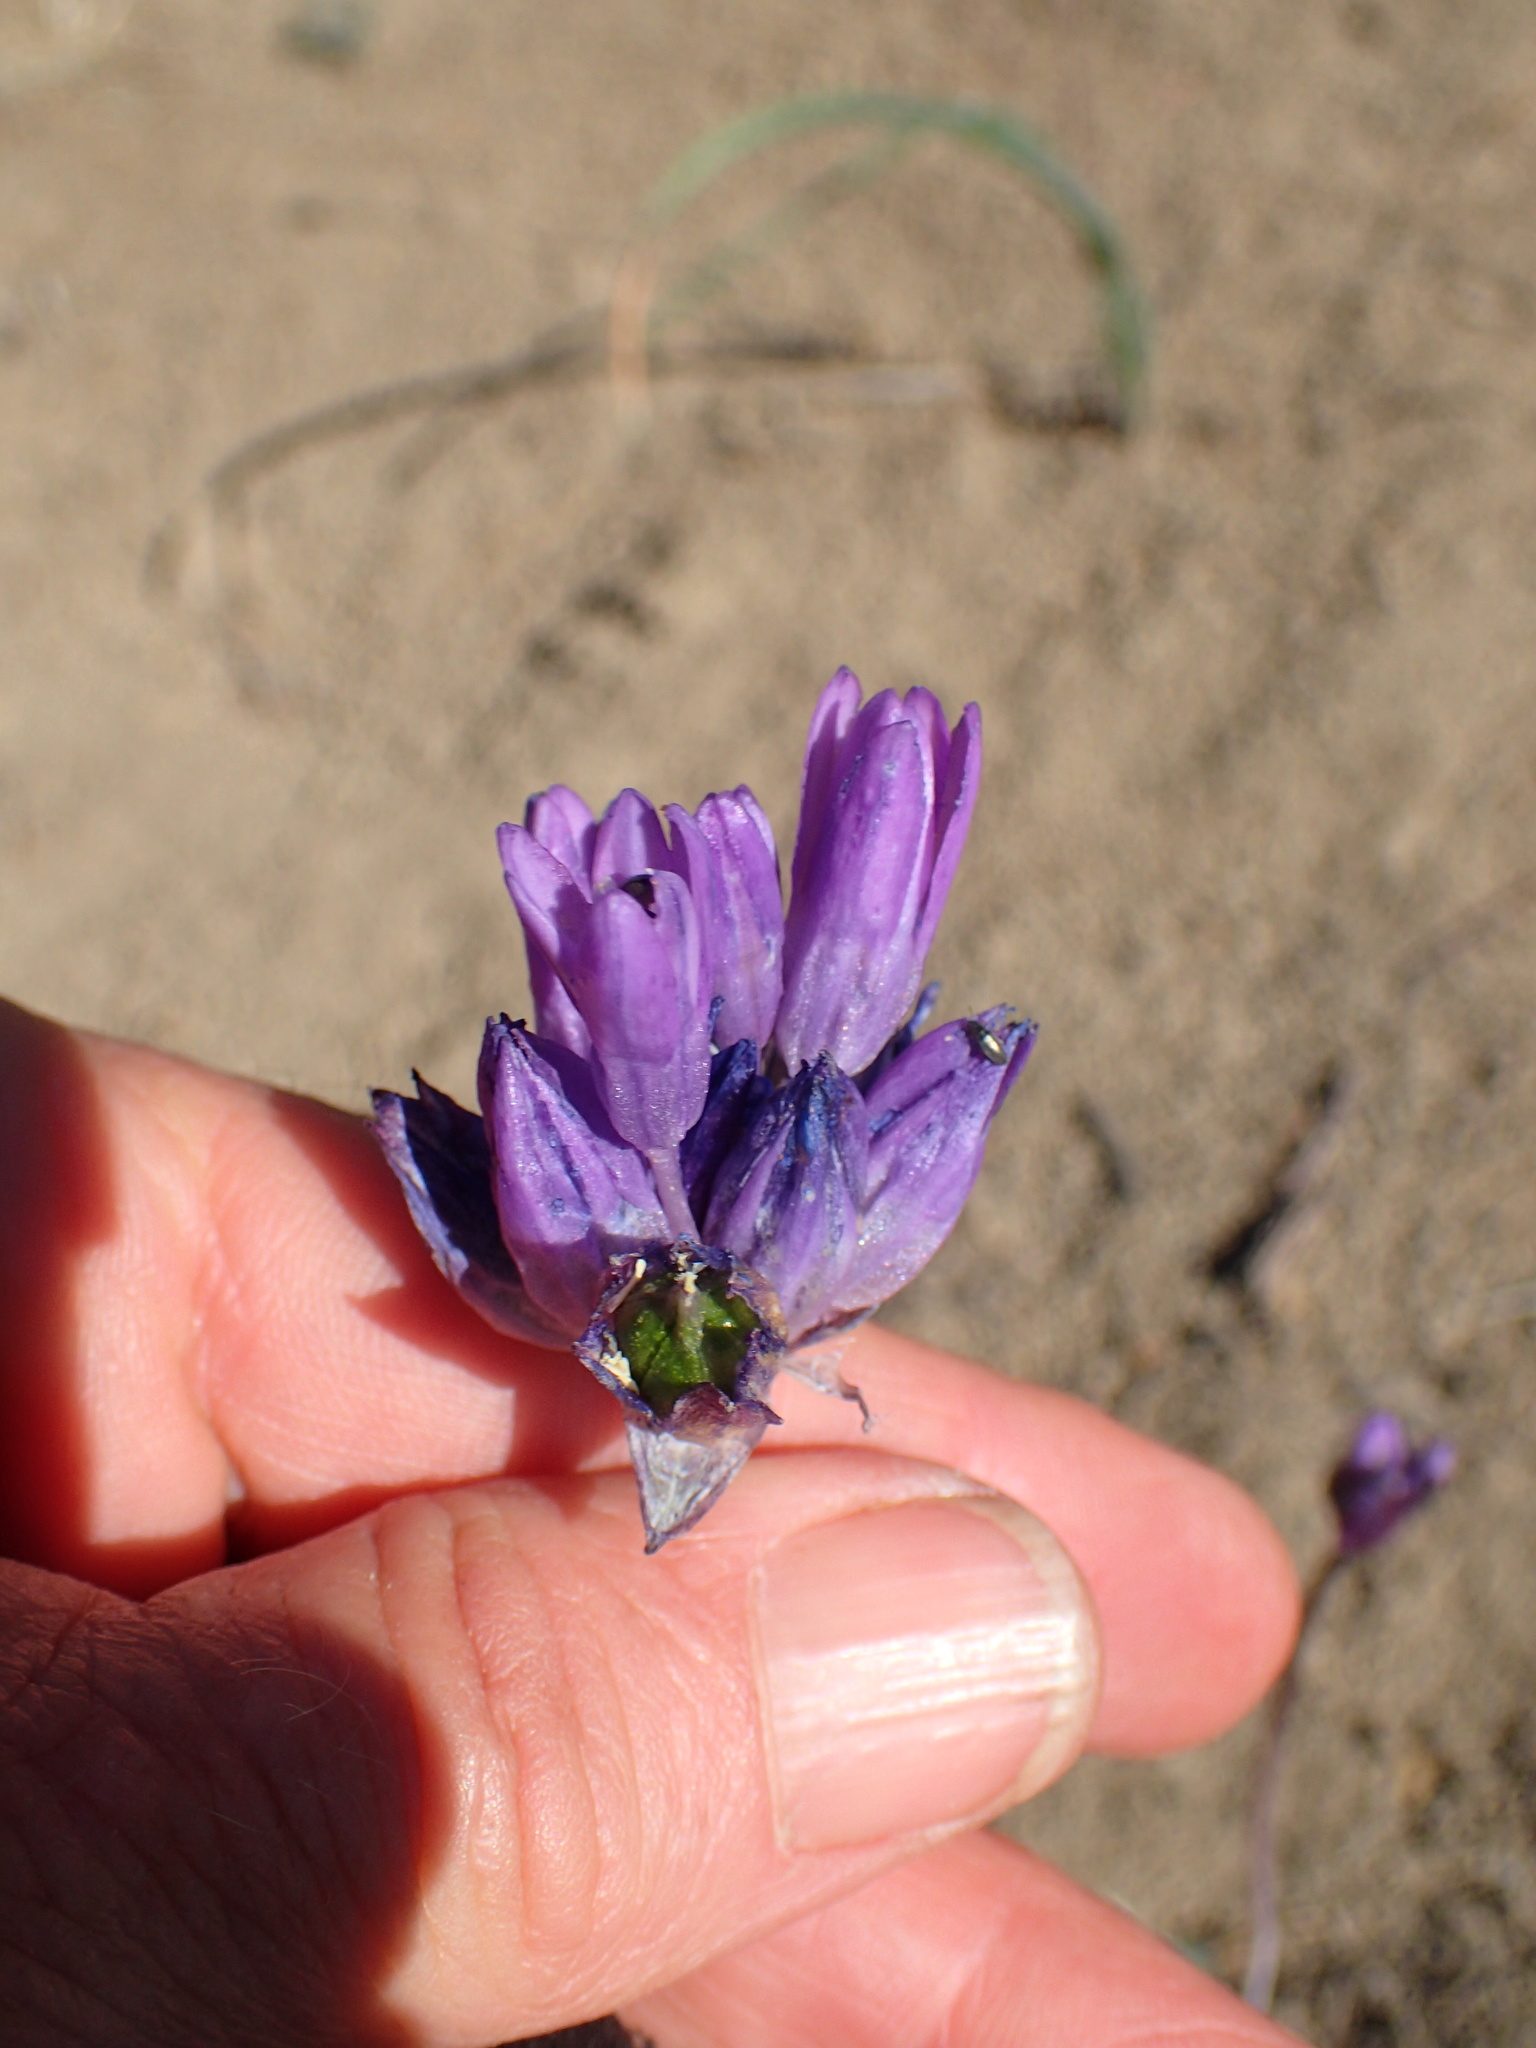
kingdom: Plantae
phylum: Tracheophyta
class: Liliopsida
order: Asparagales
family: Asparagaceae
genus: Dipterostemon
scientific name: Dipterostemon capitatus
